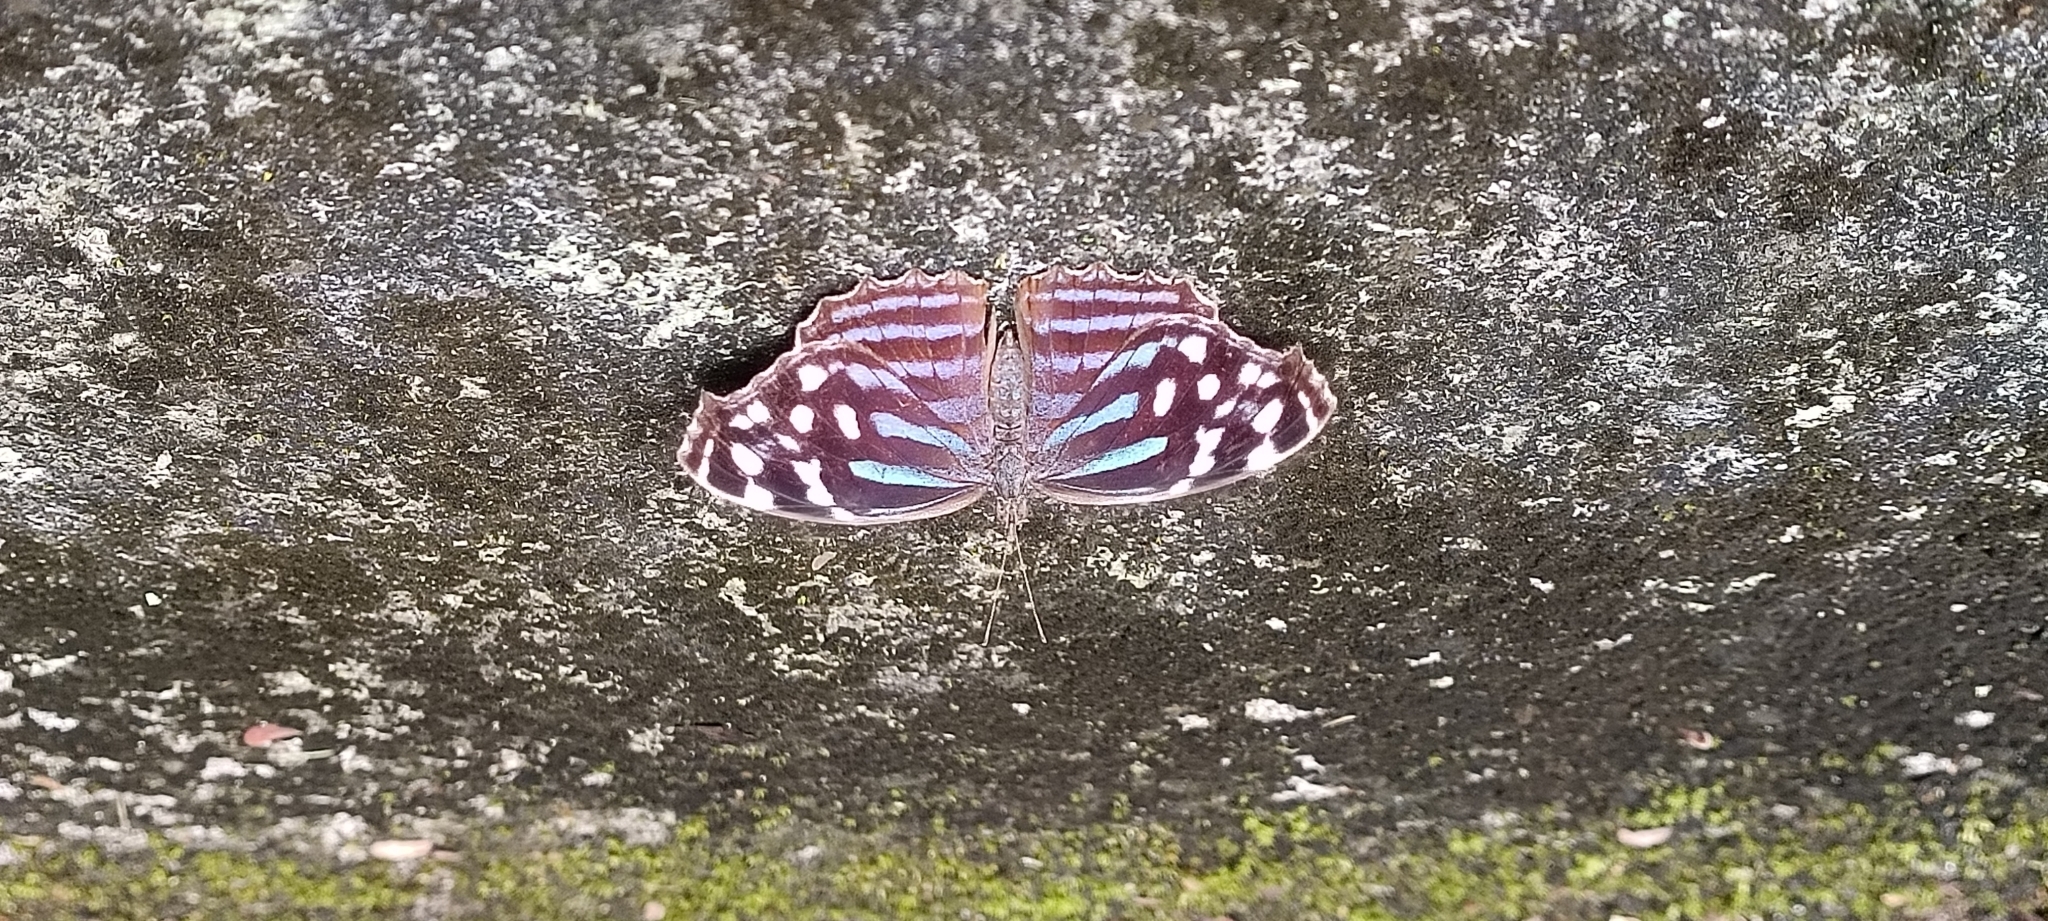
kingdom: Animalia
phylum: Arthropoda
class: Insecta
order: Lepidoptera
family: Nymphalidae
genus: Myscelia
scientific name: Myscelia ethusa
